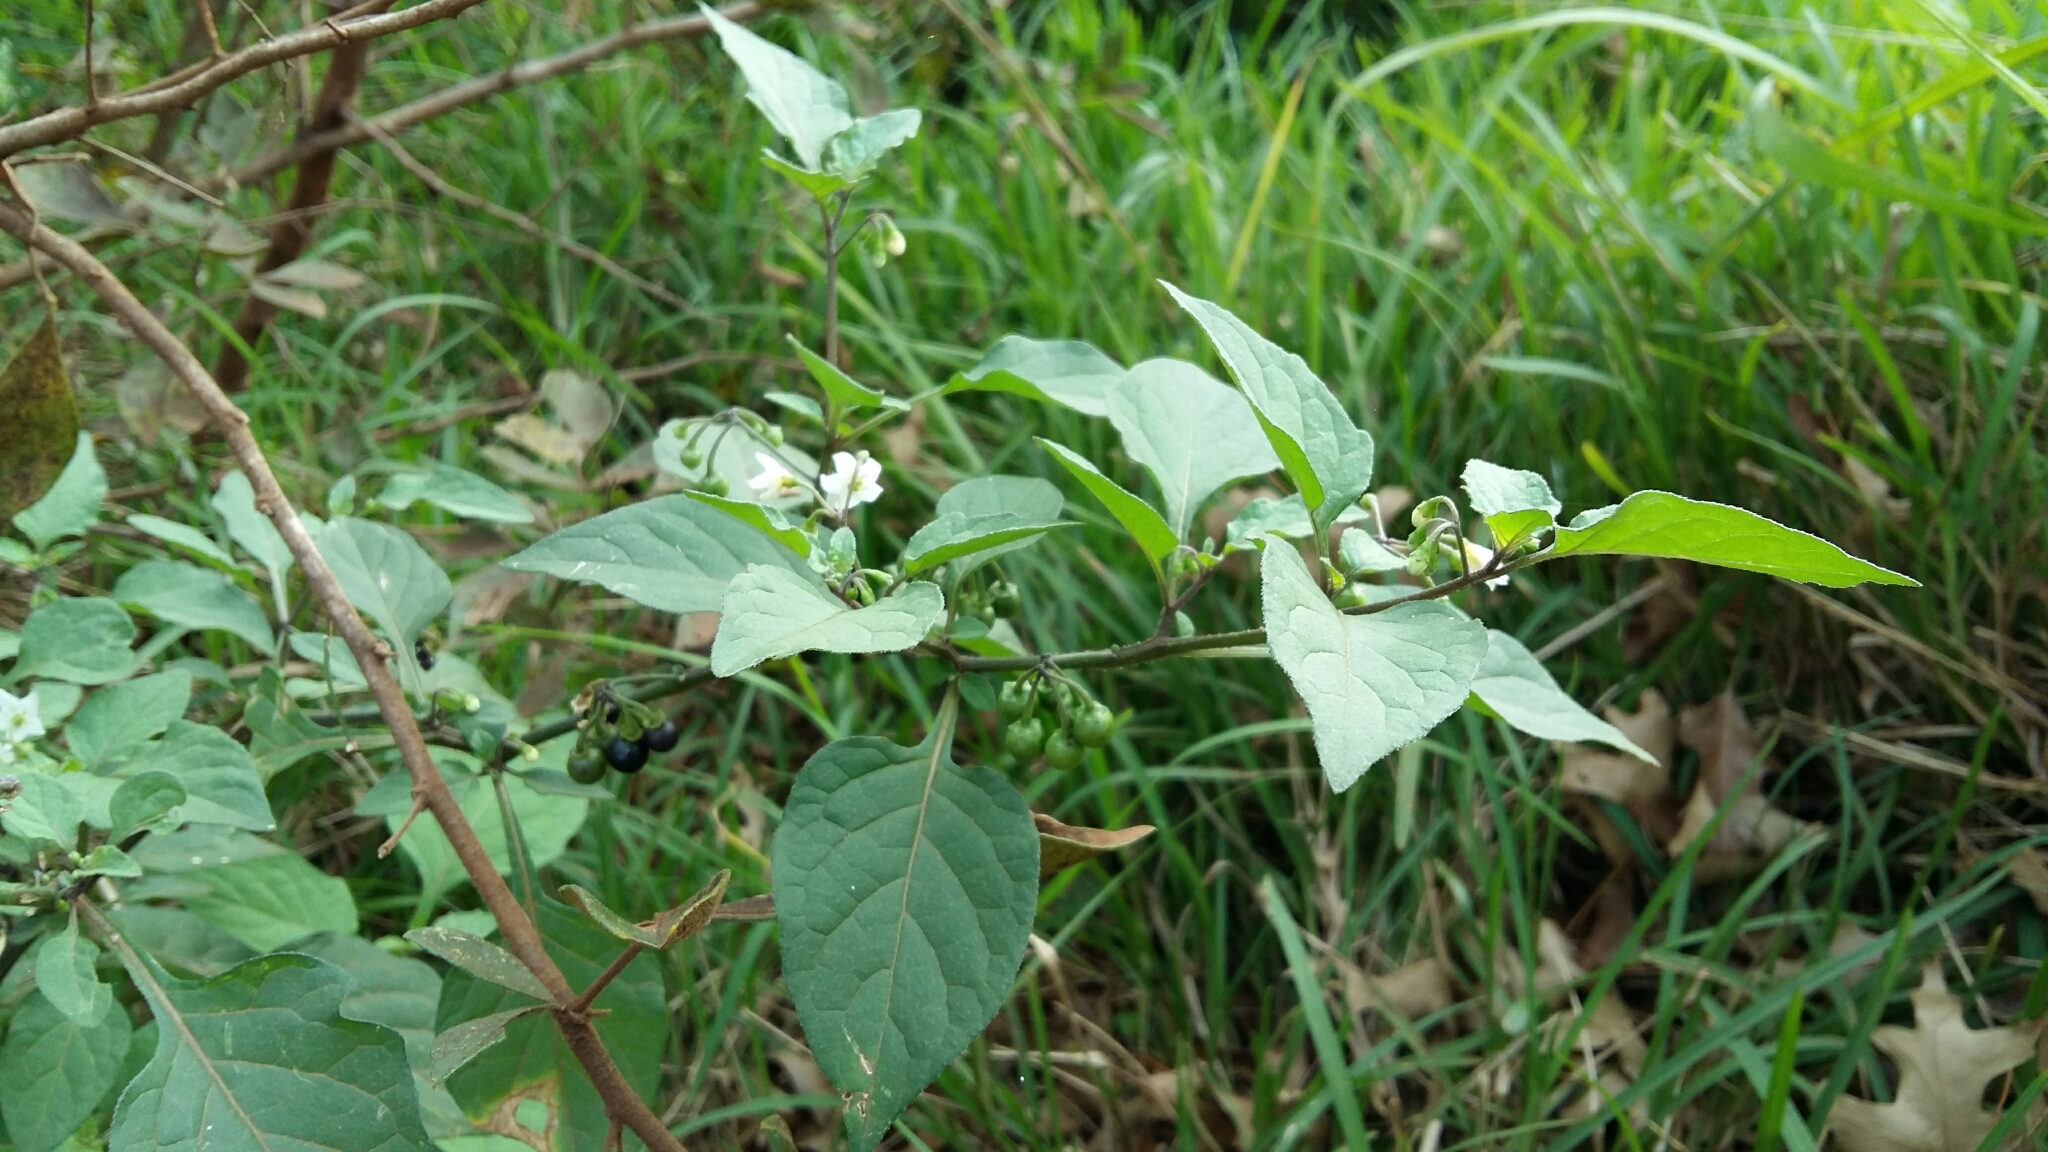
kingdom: Plantae
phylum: Tracheophyta
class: Magnoliopsida
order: Solanales
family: Solanaceae
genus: Solanum
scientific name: Solanum nigrum
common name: Black nightshade
